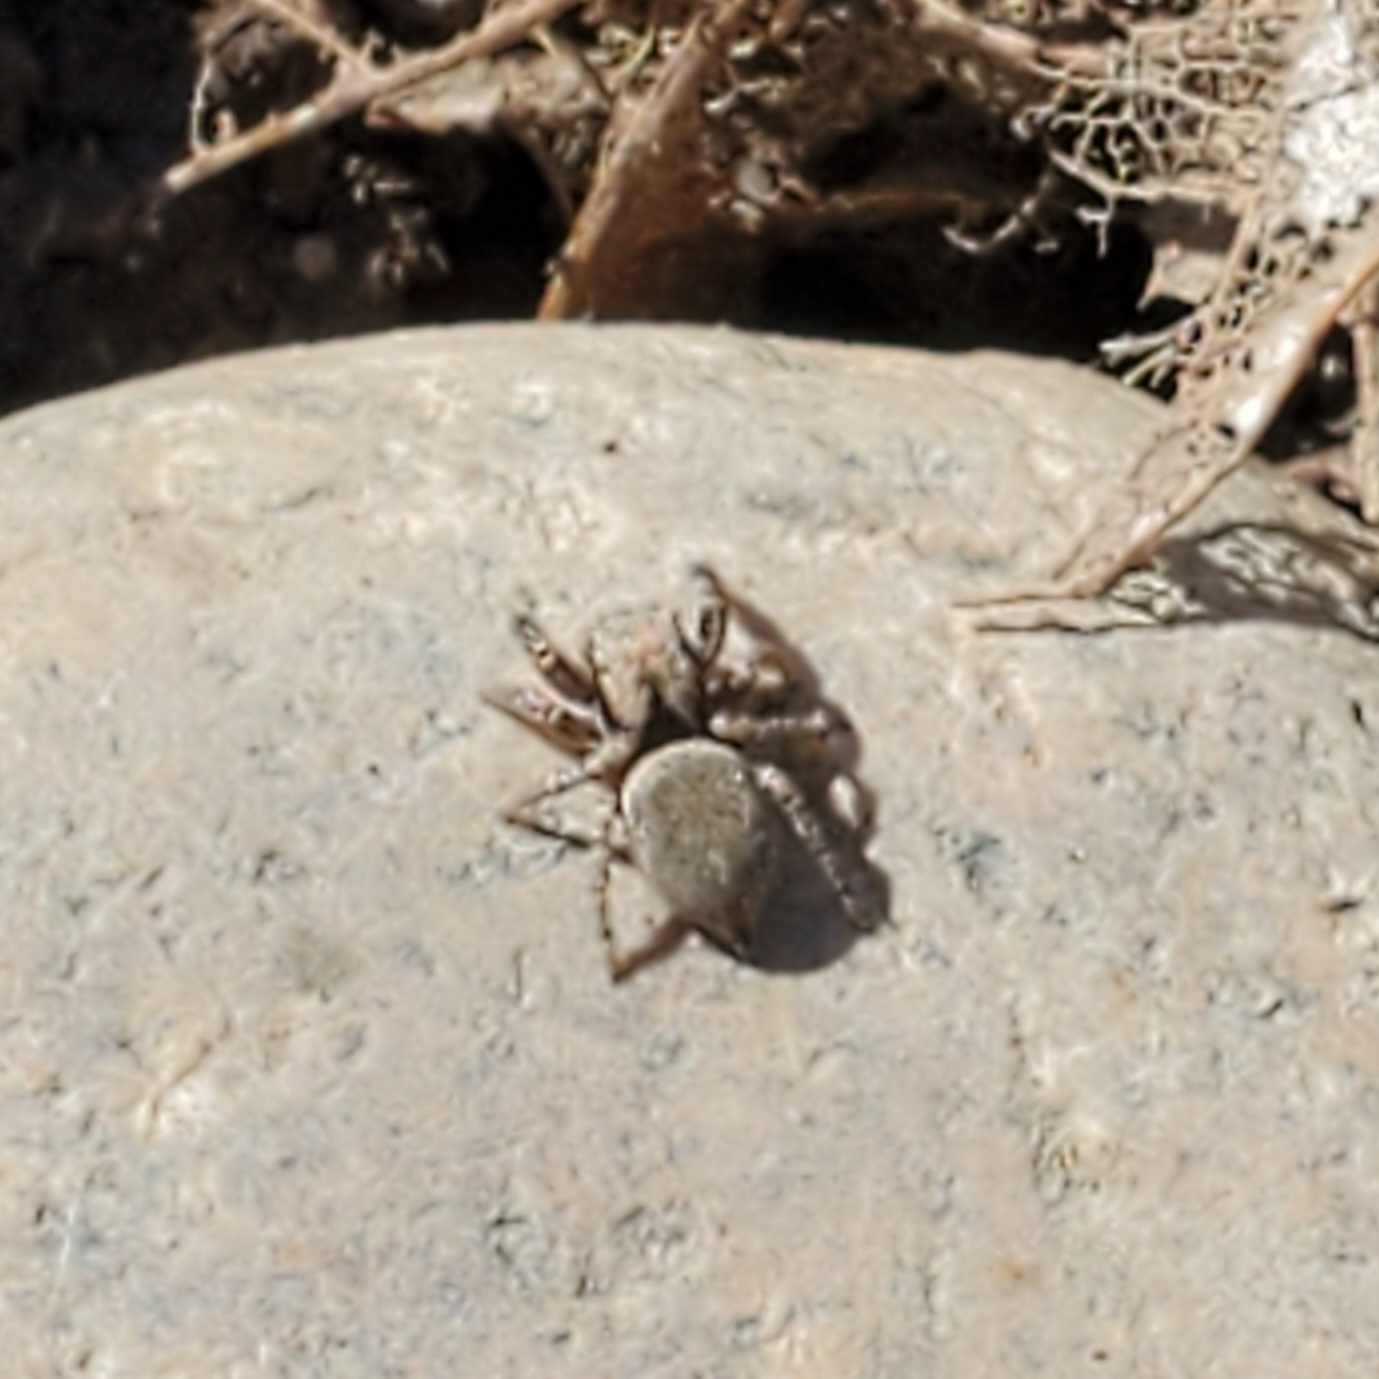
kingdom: Animalia
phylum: Arthropoda
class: Arachnida
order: Araneae
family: Salticidae
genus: Habronattus
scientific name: Habronattus oregonensis
